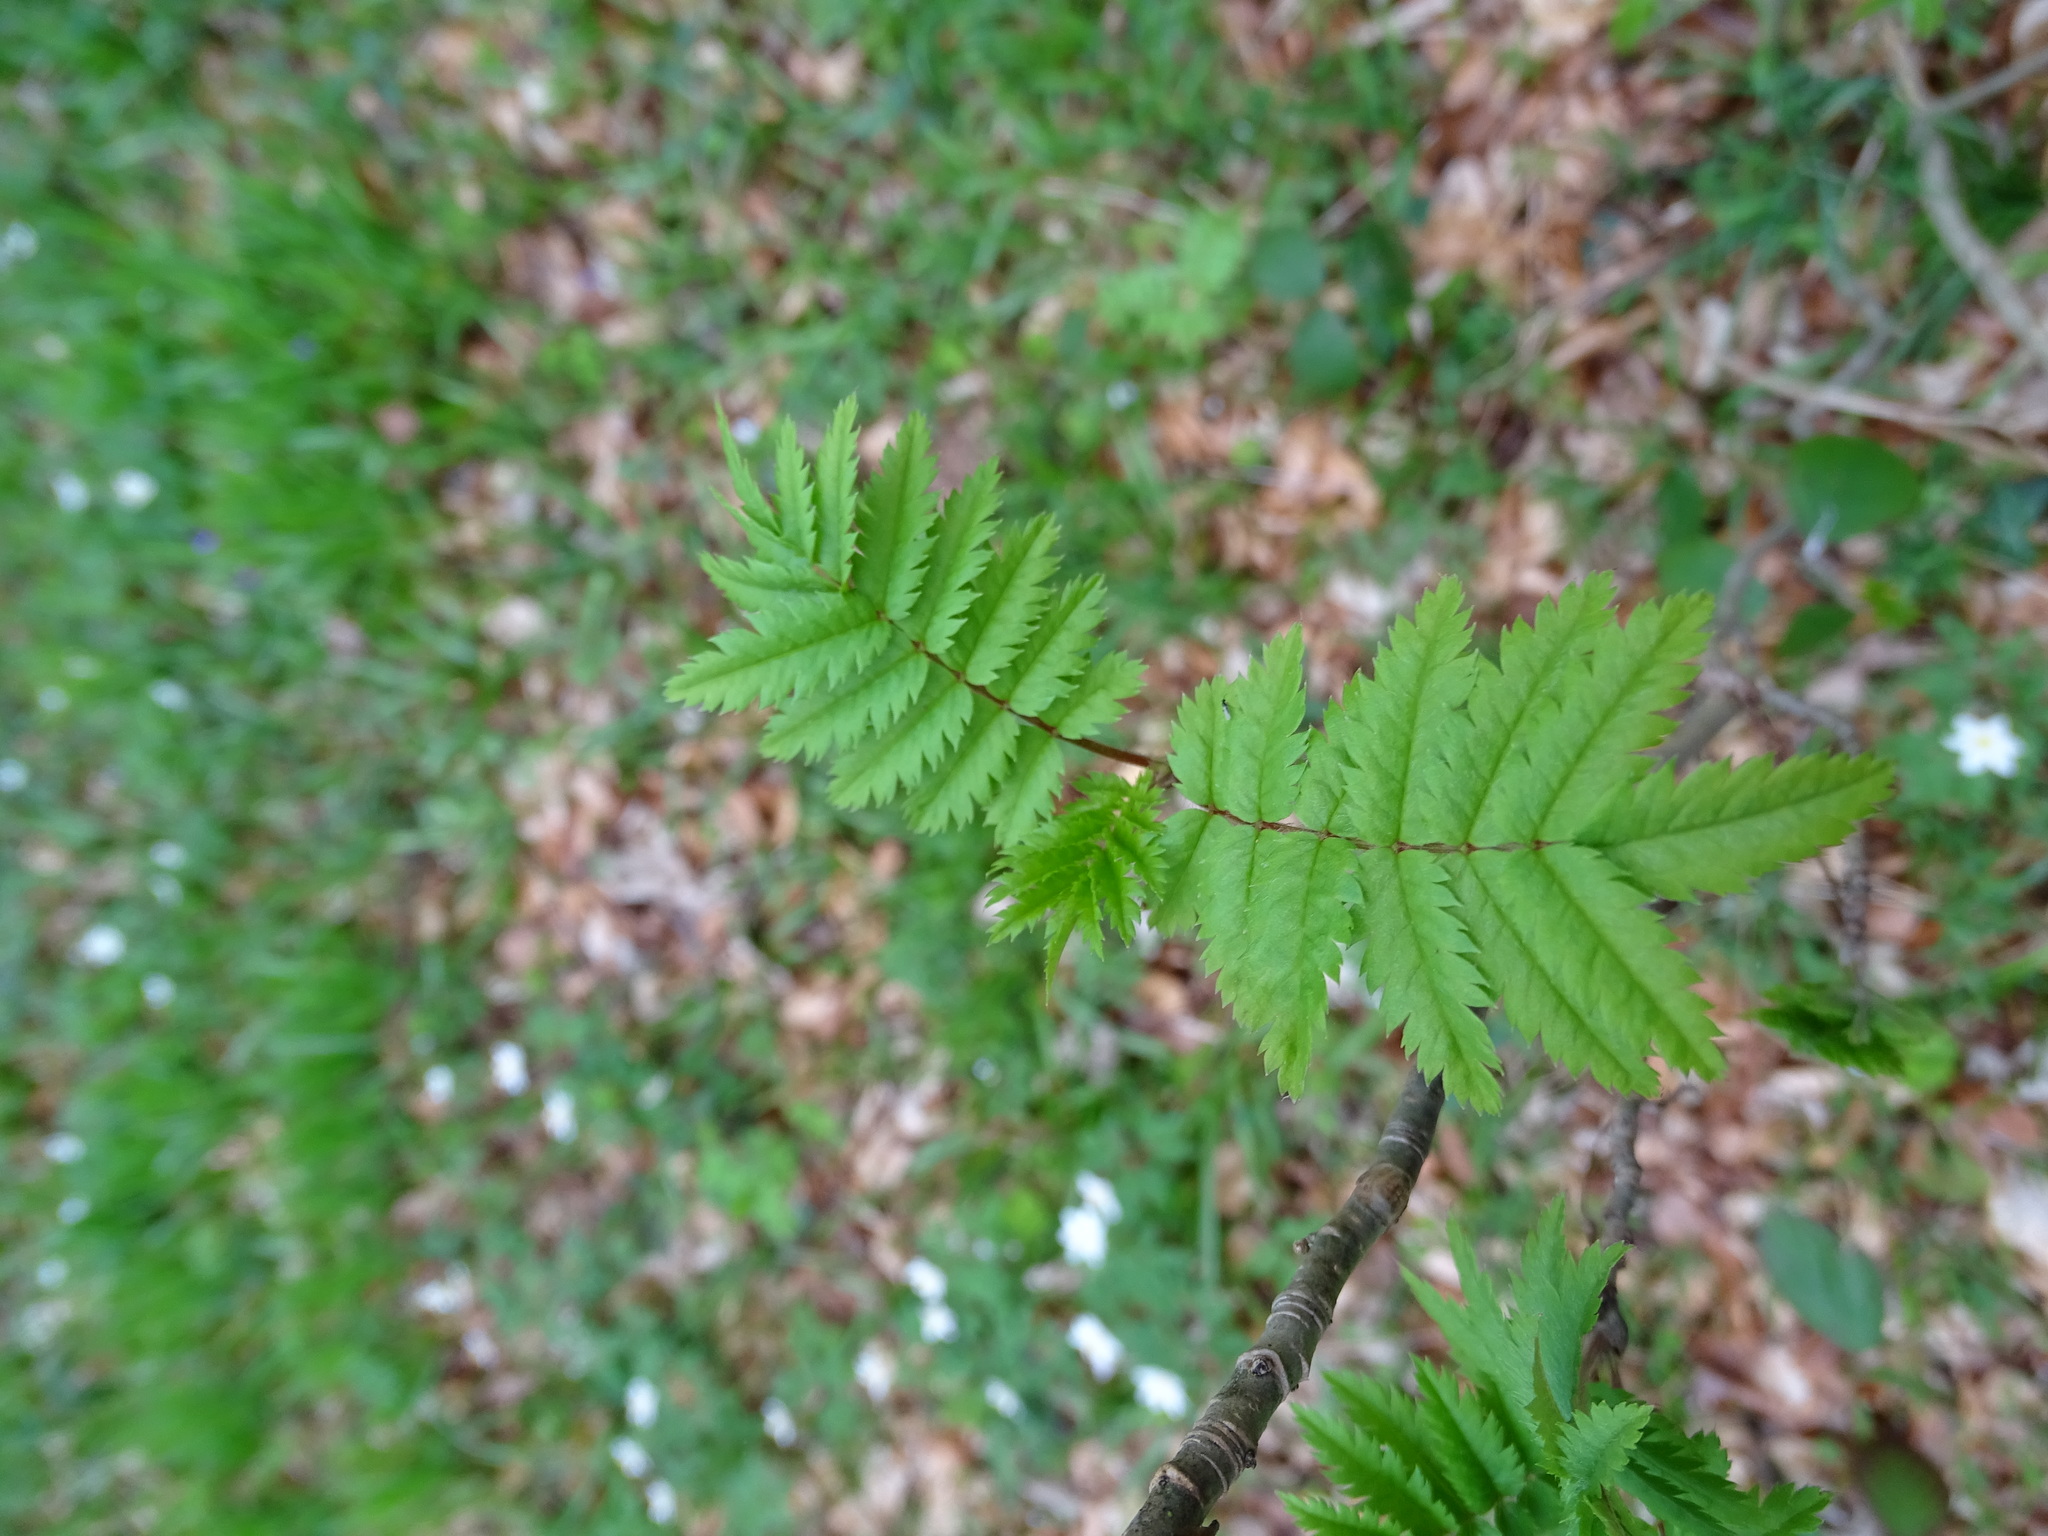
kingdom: Plantae
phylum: Tracheophyta
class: Magnoliopsida
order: Rosales
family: Rosaceae
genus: Sorbus
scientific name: Sorbus aucuparia
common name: Rowan
